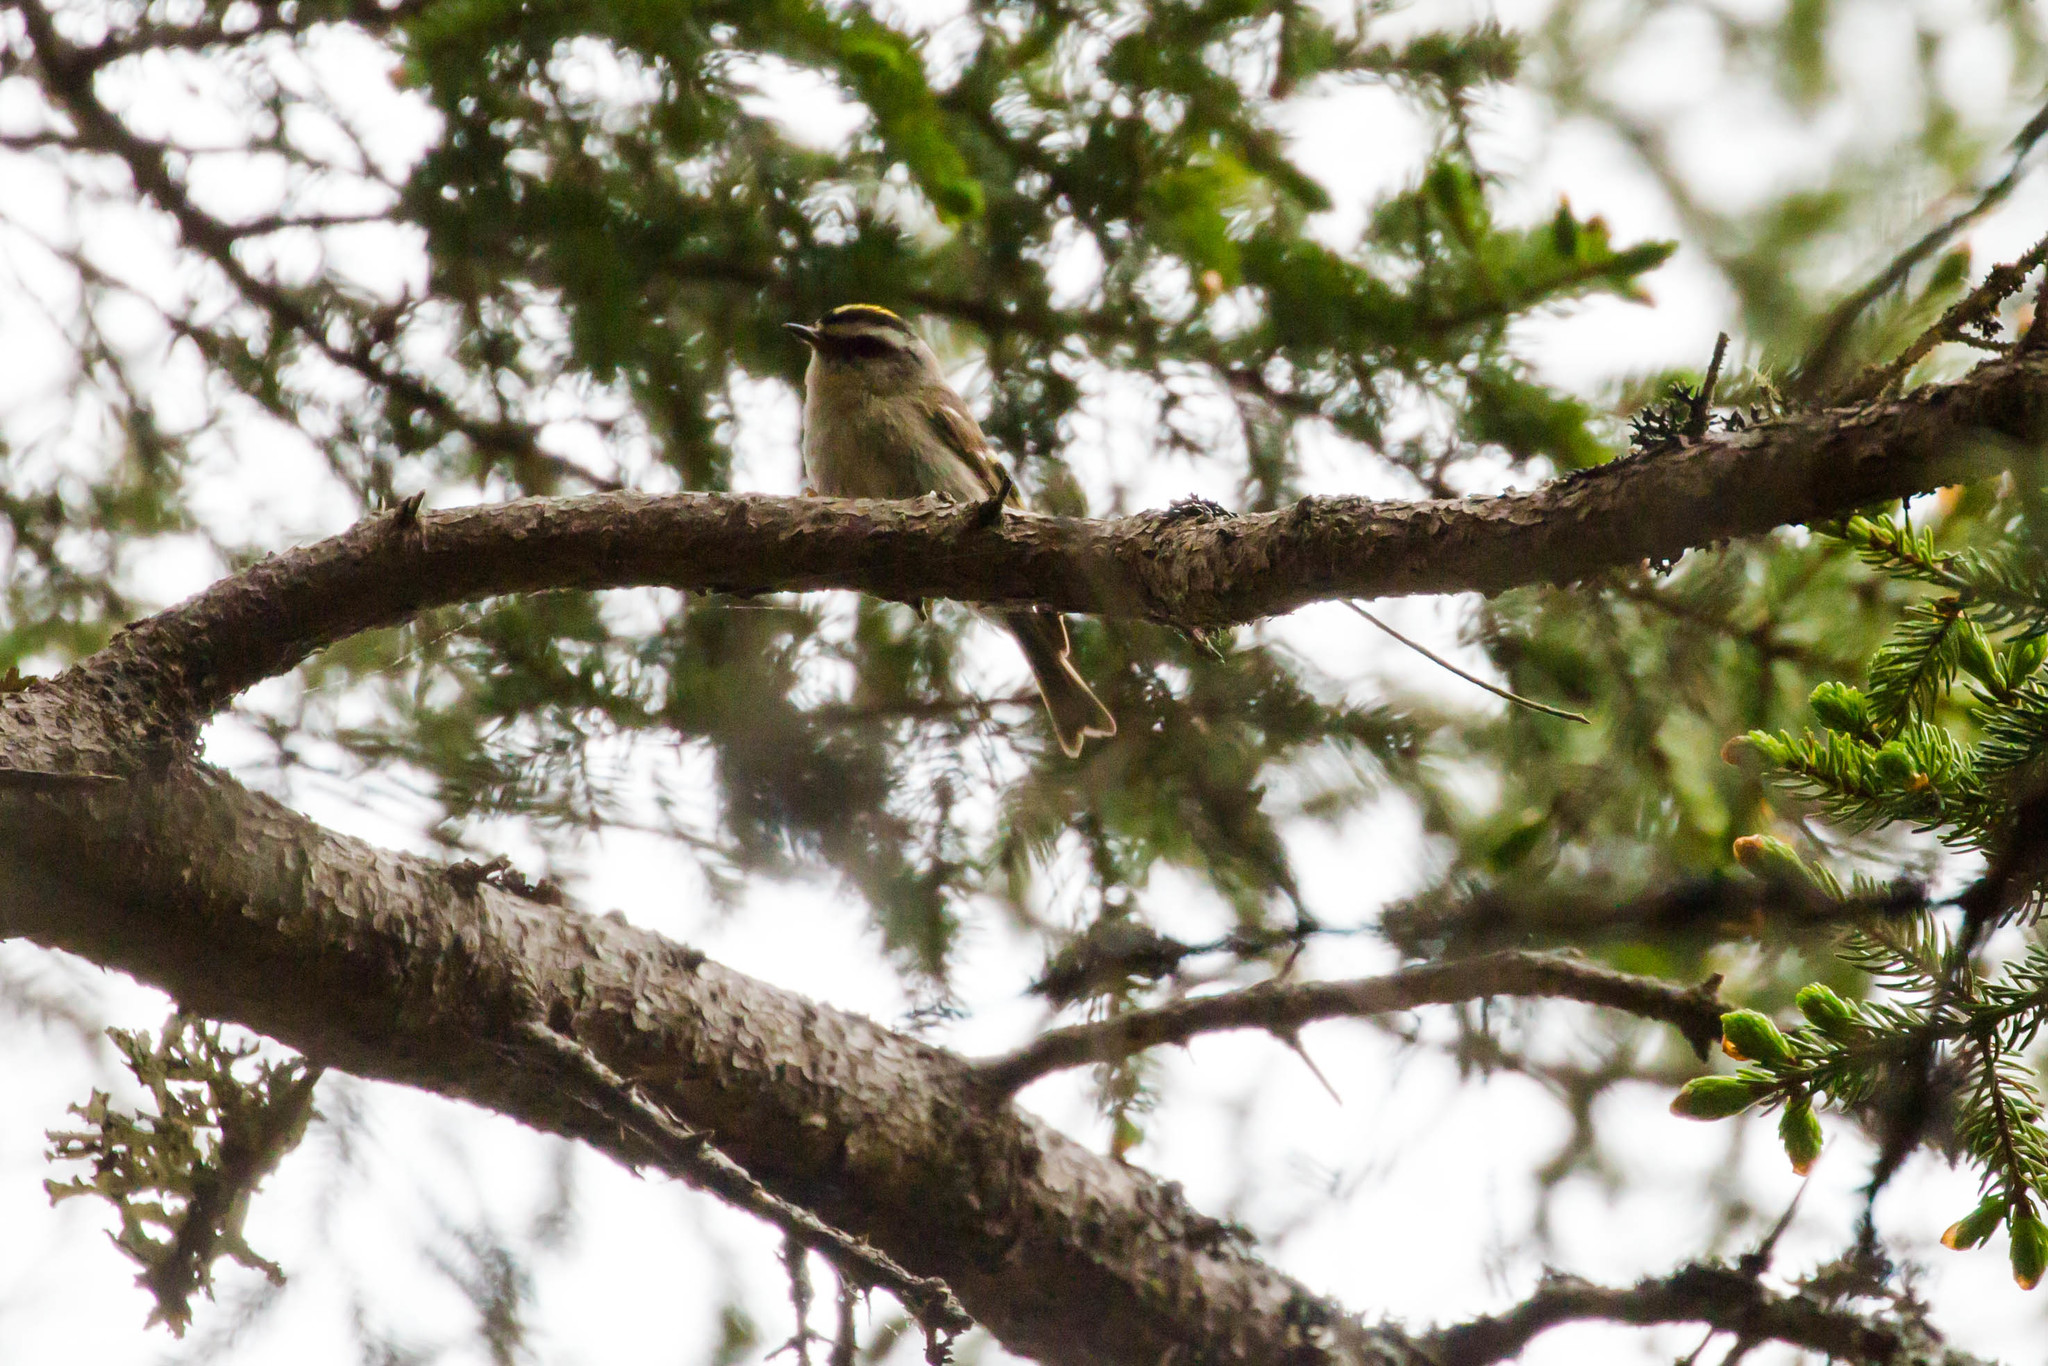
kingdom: Animalia
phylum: Chordata
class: Aves
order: Passeriformes
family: Regulidae
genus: Regulus
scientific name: Regulus satrapa
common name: Golden-crowned kinglet
